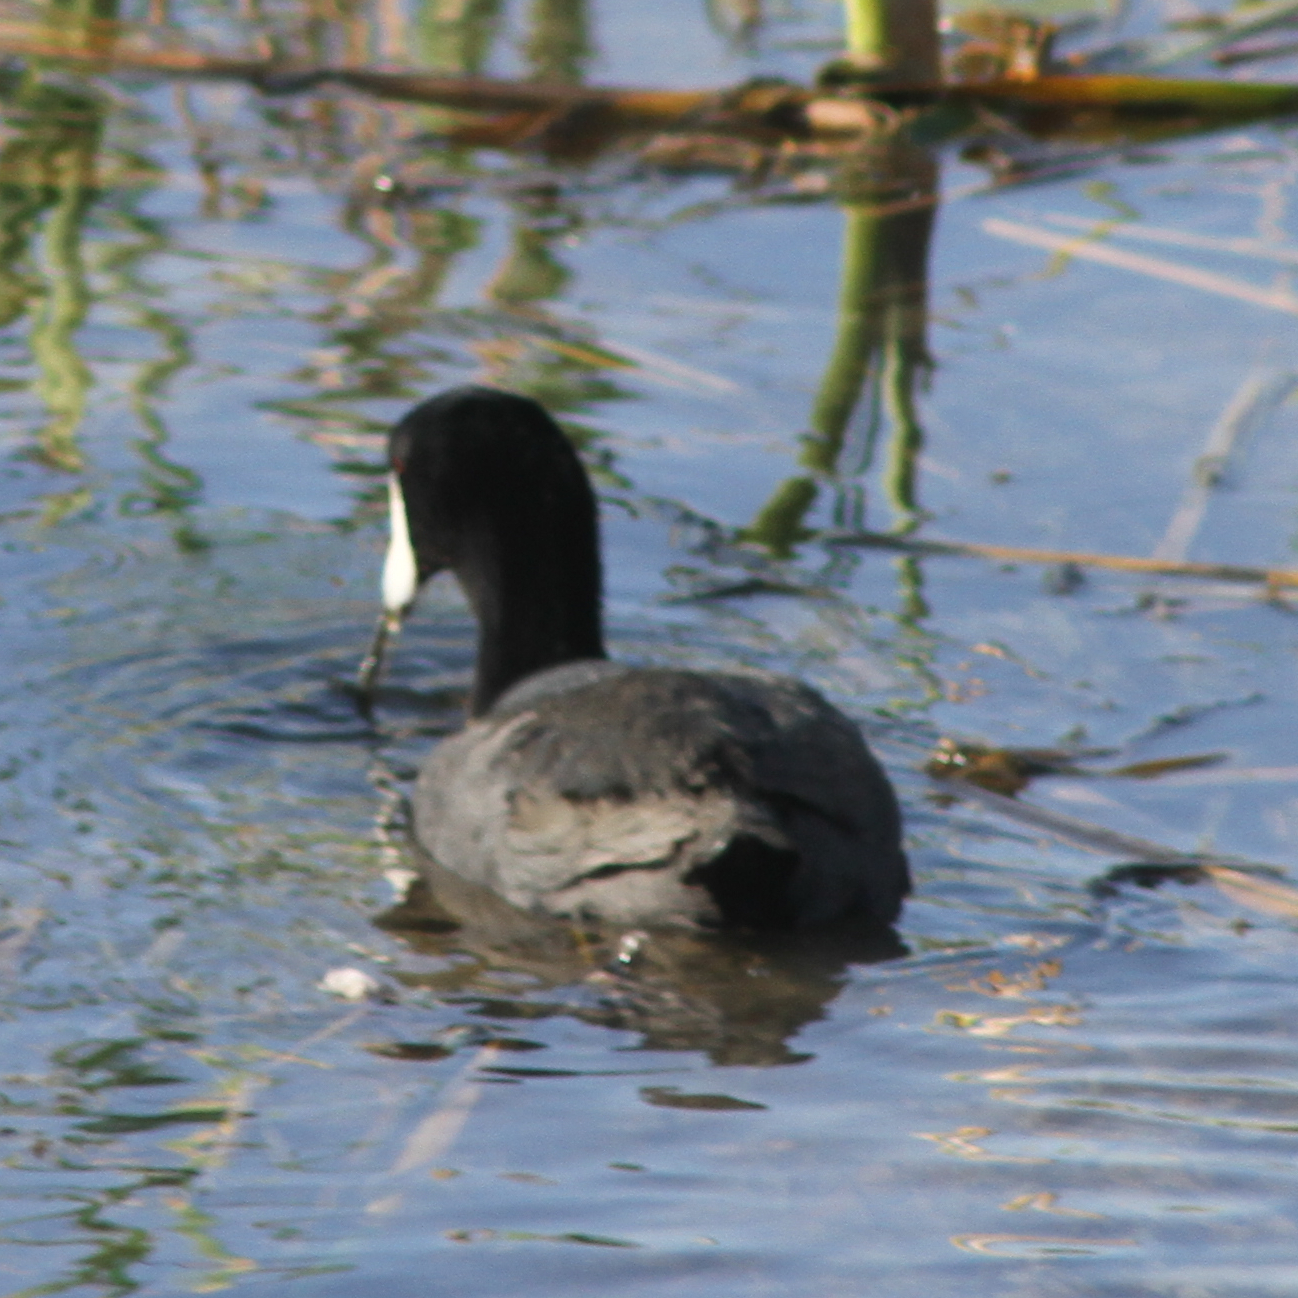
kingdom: Animalia
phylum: Chordata
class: Aves
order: Gruiformes
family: Rallidae
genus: Fulica
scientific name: Fulica americana
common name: American coot
